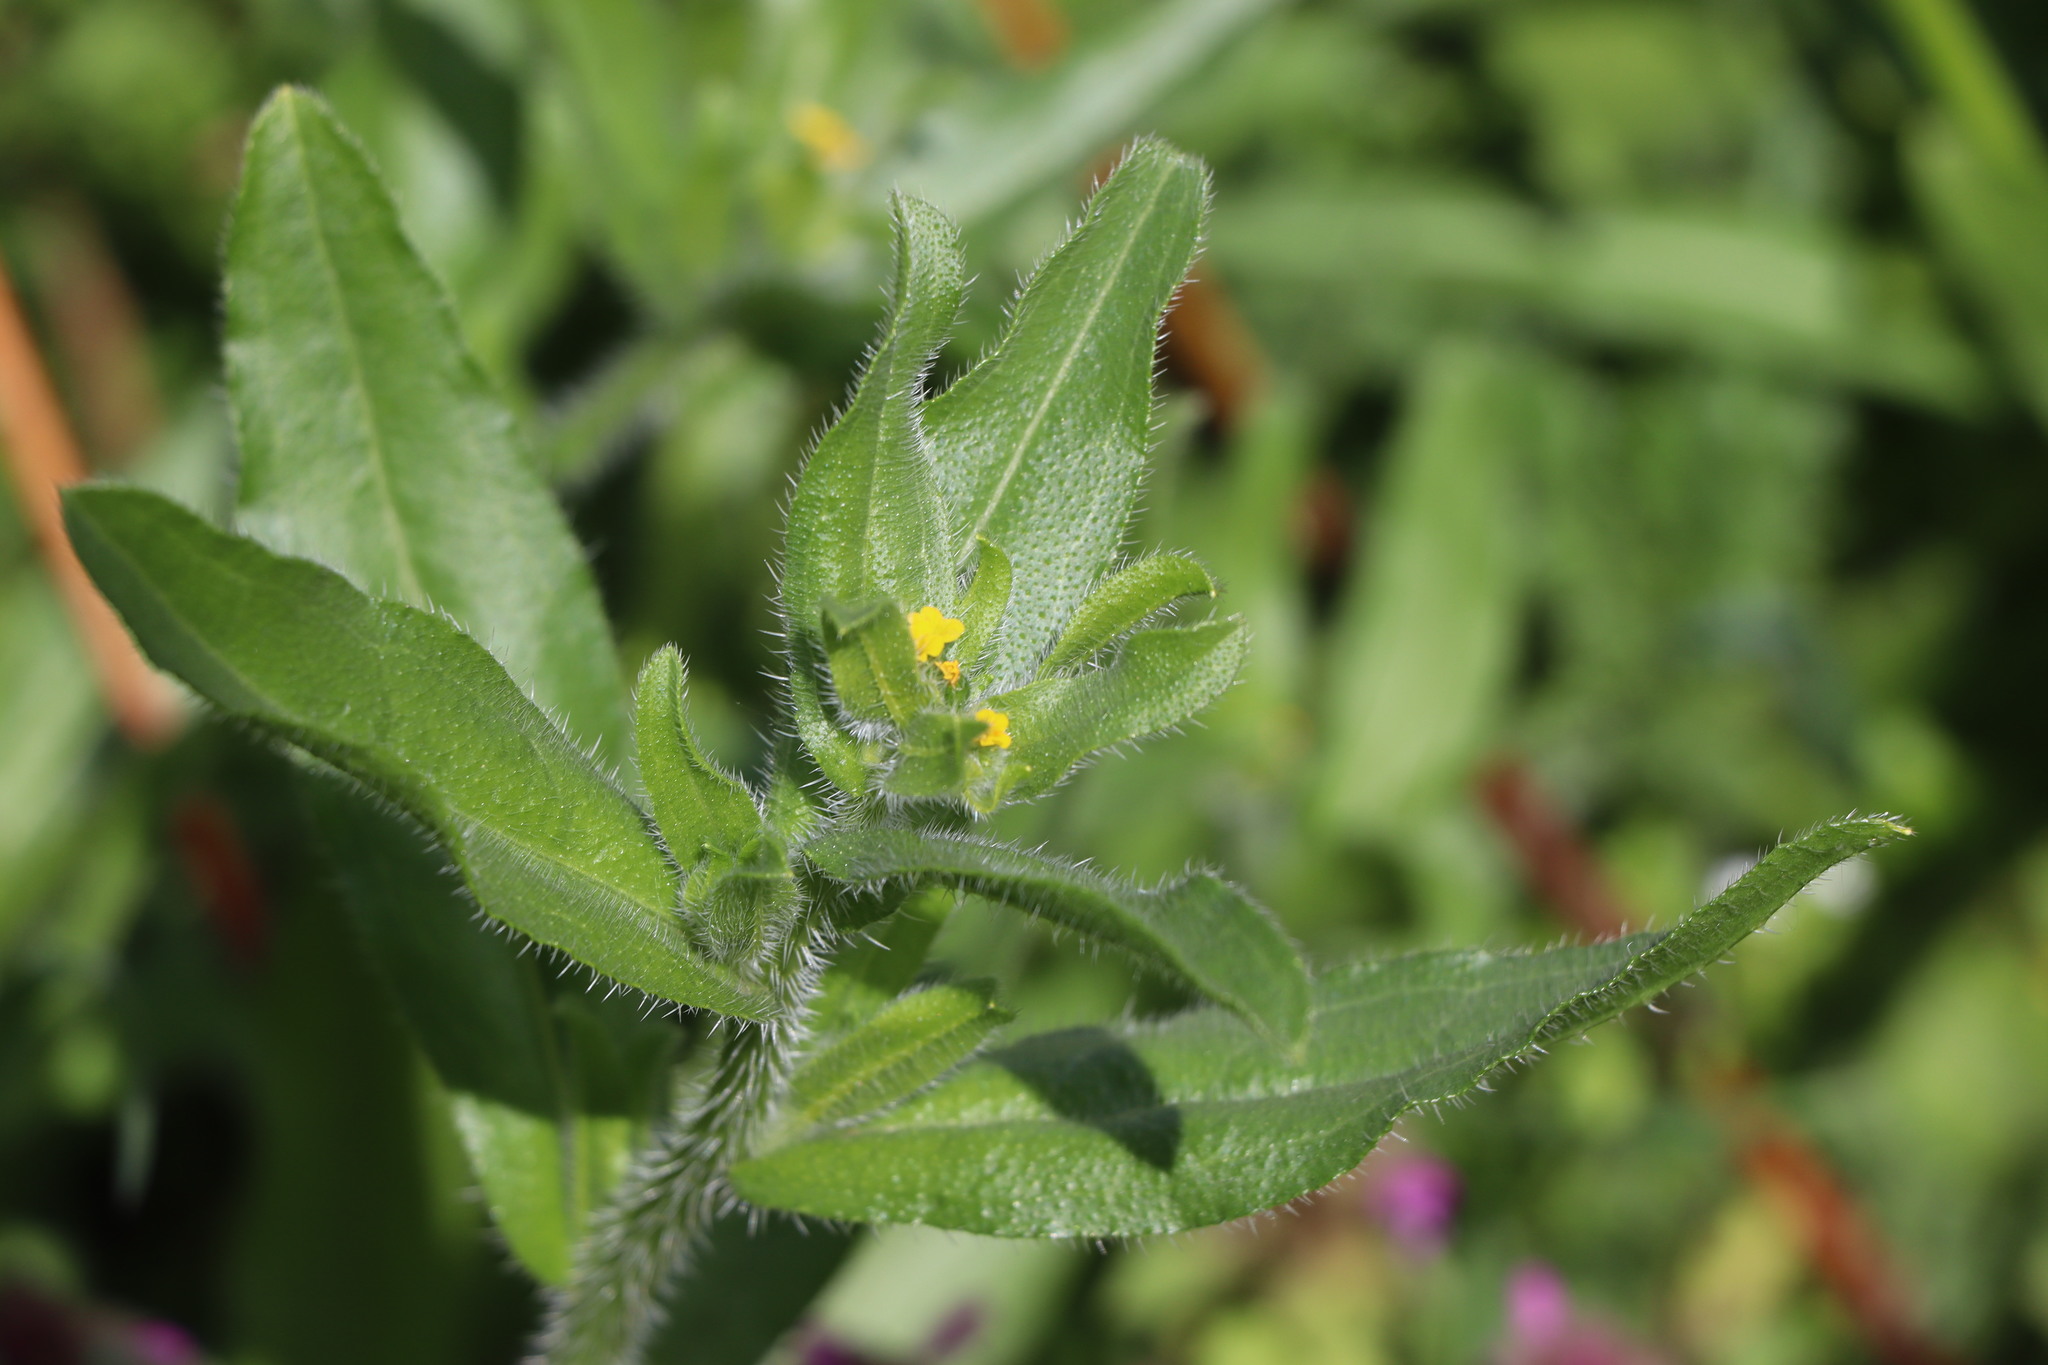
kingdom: Plantae
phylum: Tracheophyta
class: Magnoliopsida
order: Boraginales
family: Boraginaceae
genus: Amsinckia
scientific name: Amsinckia menziesii
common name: Menzies' fiddleneck
